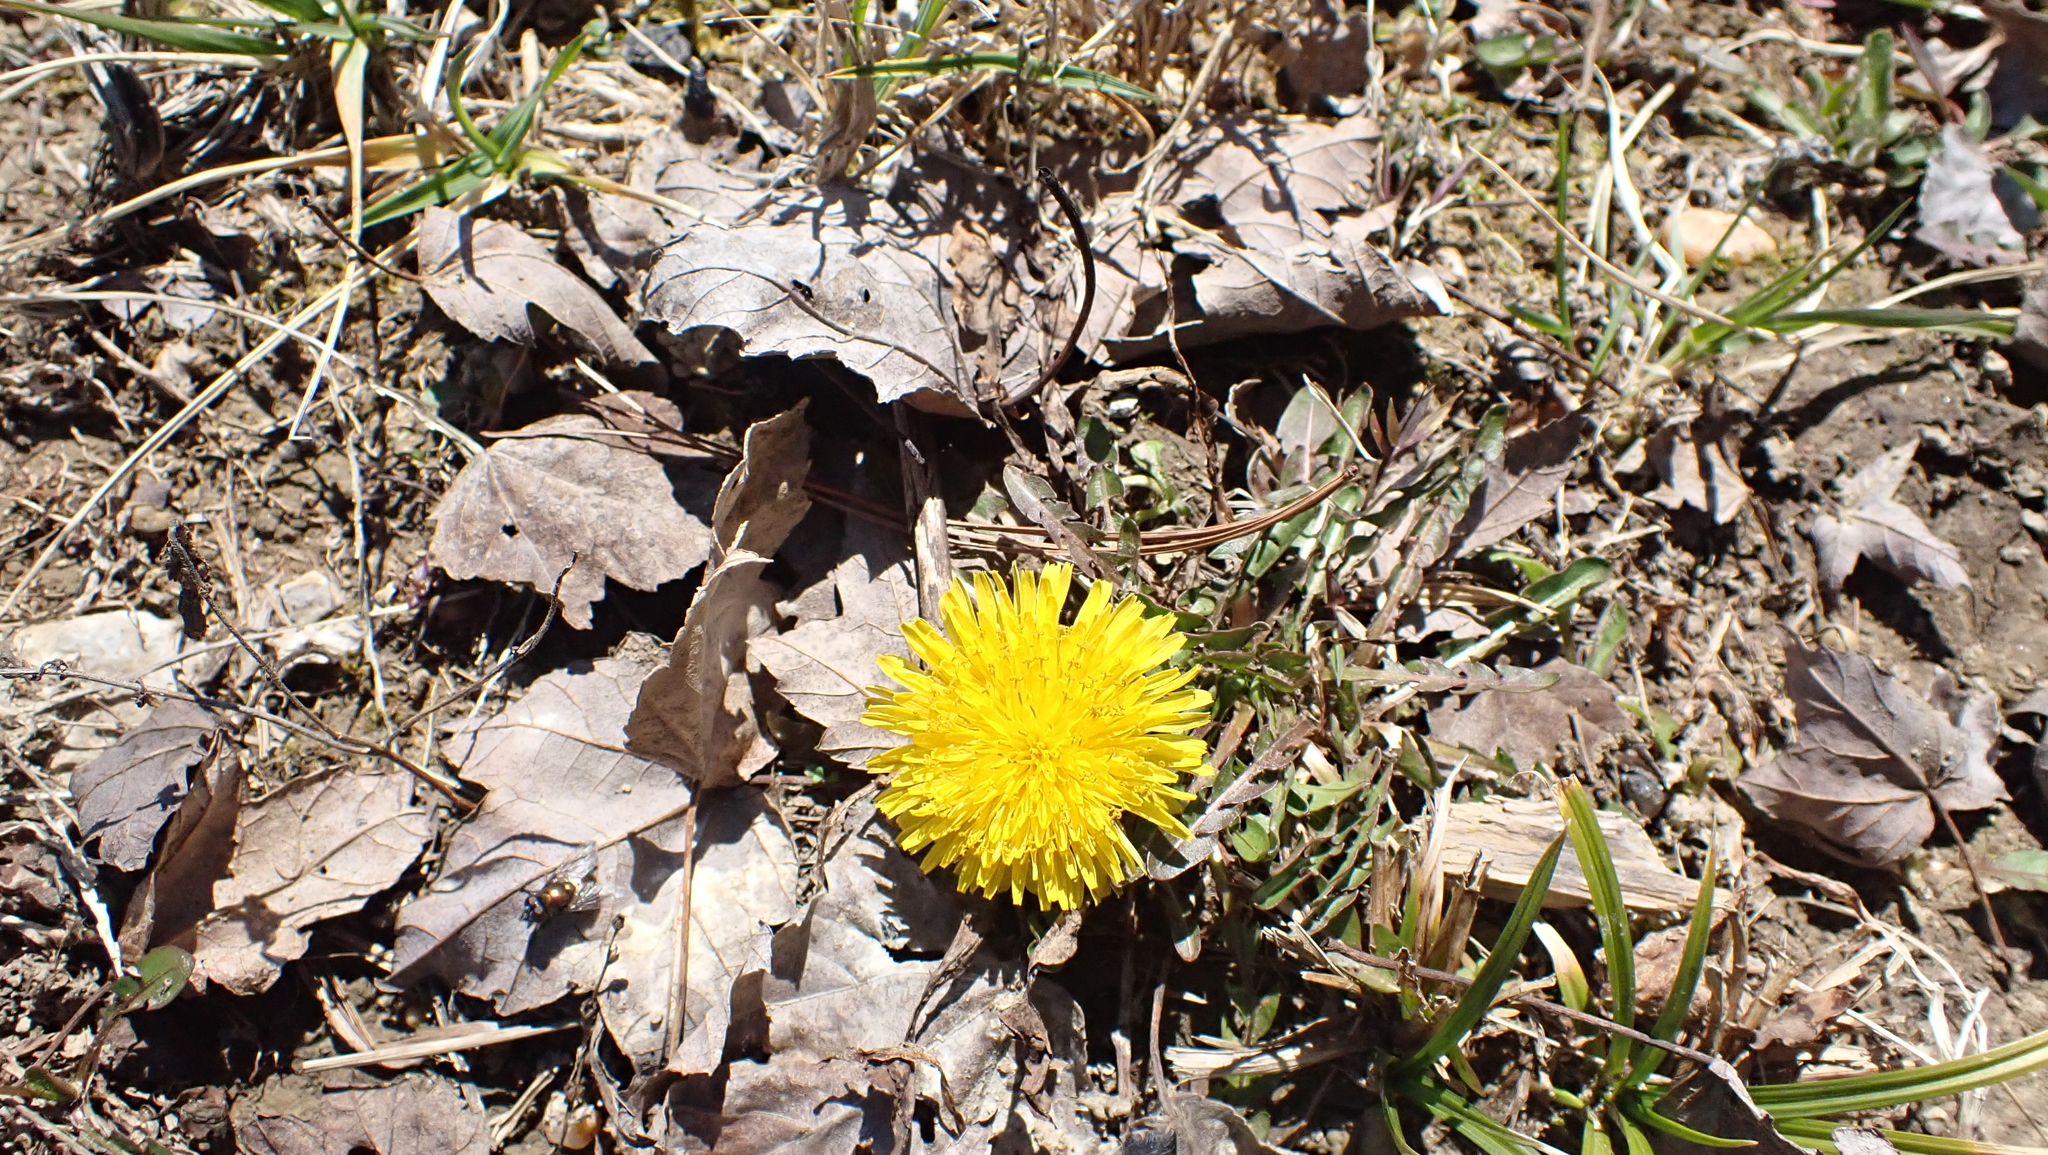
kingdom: Plantae
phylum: Tracheophyta
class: Magnoliopsida
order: Asterales
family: Asteraceae
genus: Taraxacum
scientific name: Taraxacum officinale
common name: Common dandelion
